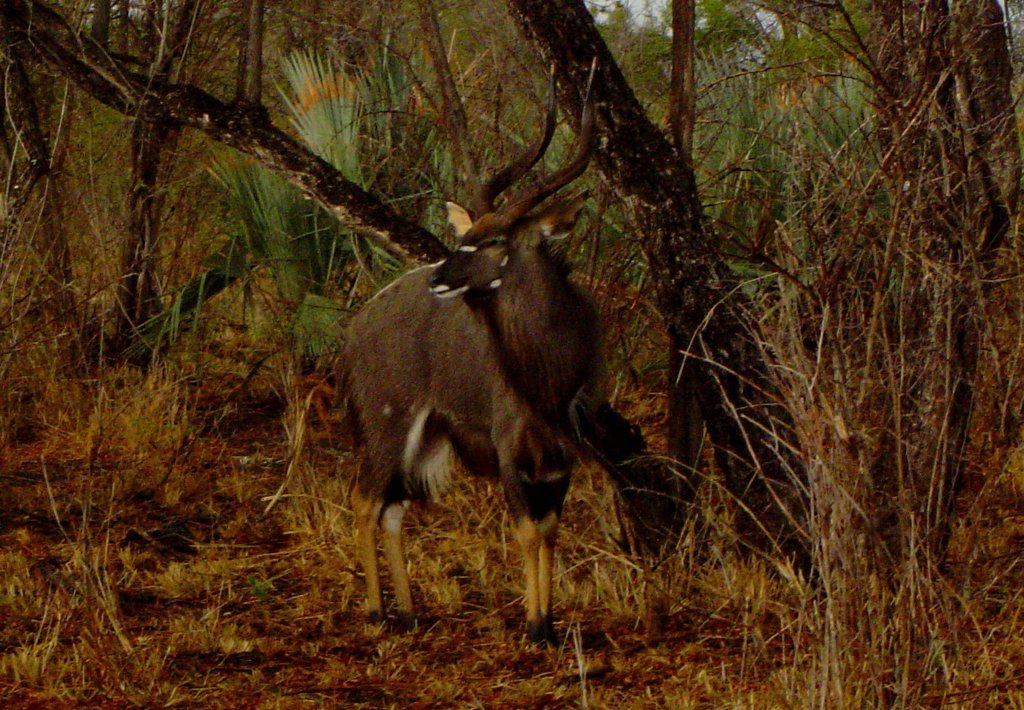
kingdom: Animalia
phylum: Chordata
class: Mammalia
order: Artiodactyla
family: Bovidae
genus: Tragelaphus
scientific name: Tragelaphus angasii
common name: Nyala
